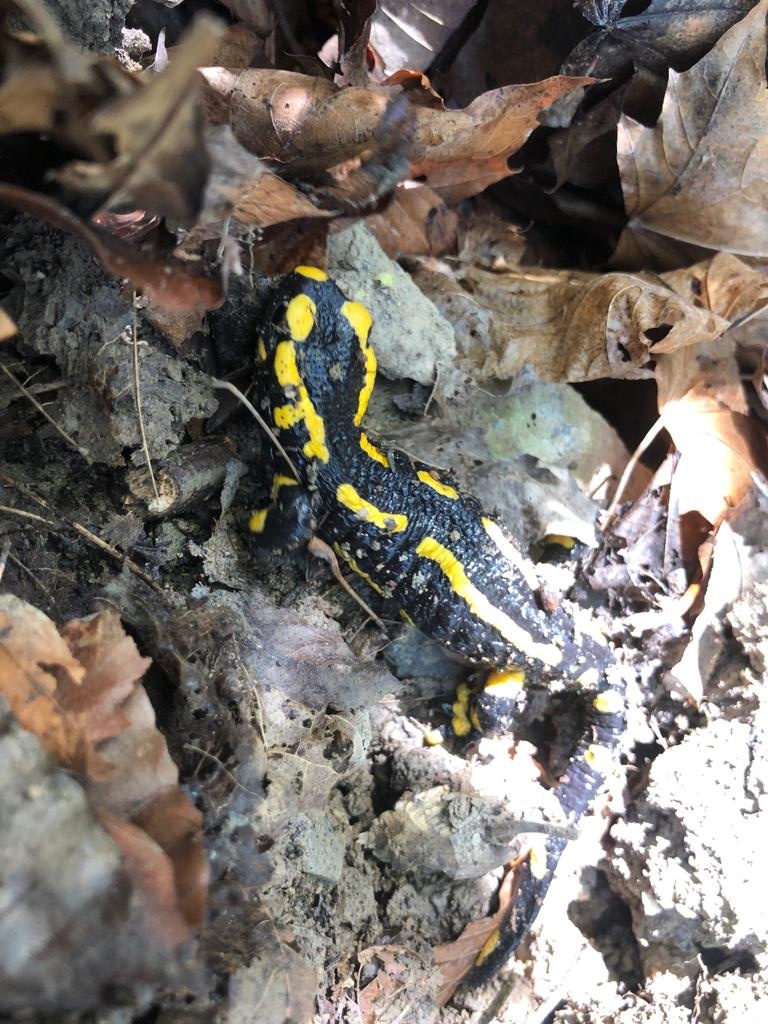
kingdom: Animalia
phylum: Chordata
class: Amphibia
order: Caudata
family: Salamandridae
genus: Salamandra
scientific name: Salamandra salamandra
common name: Fire salamander
